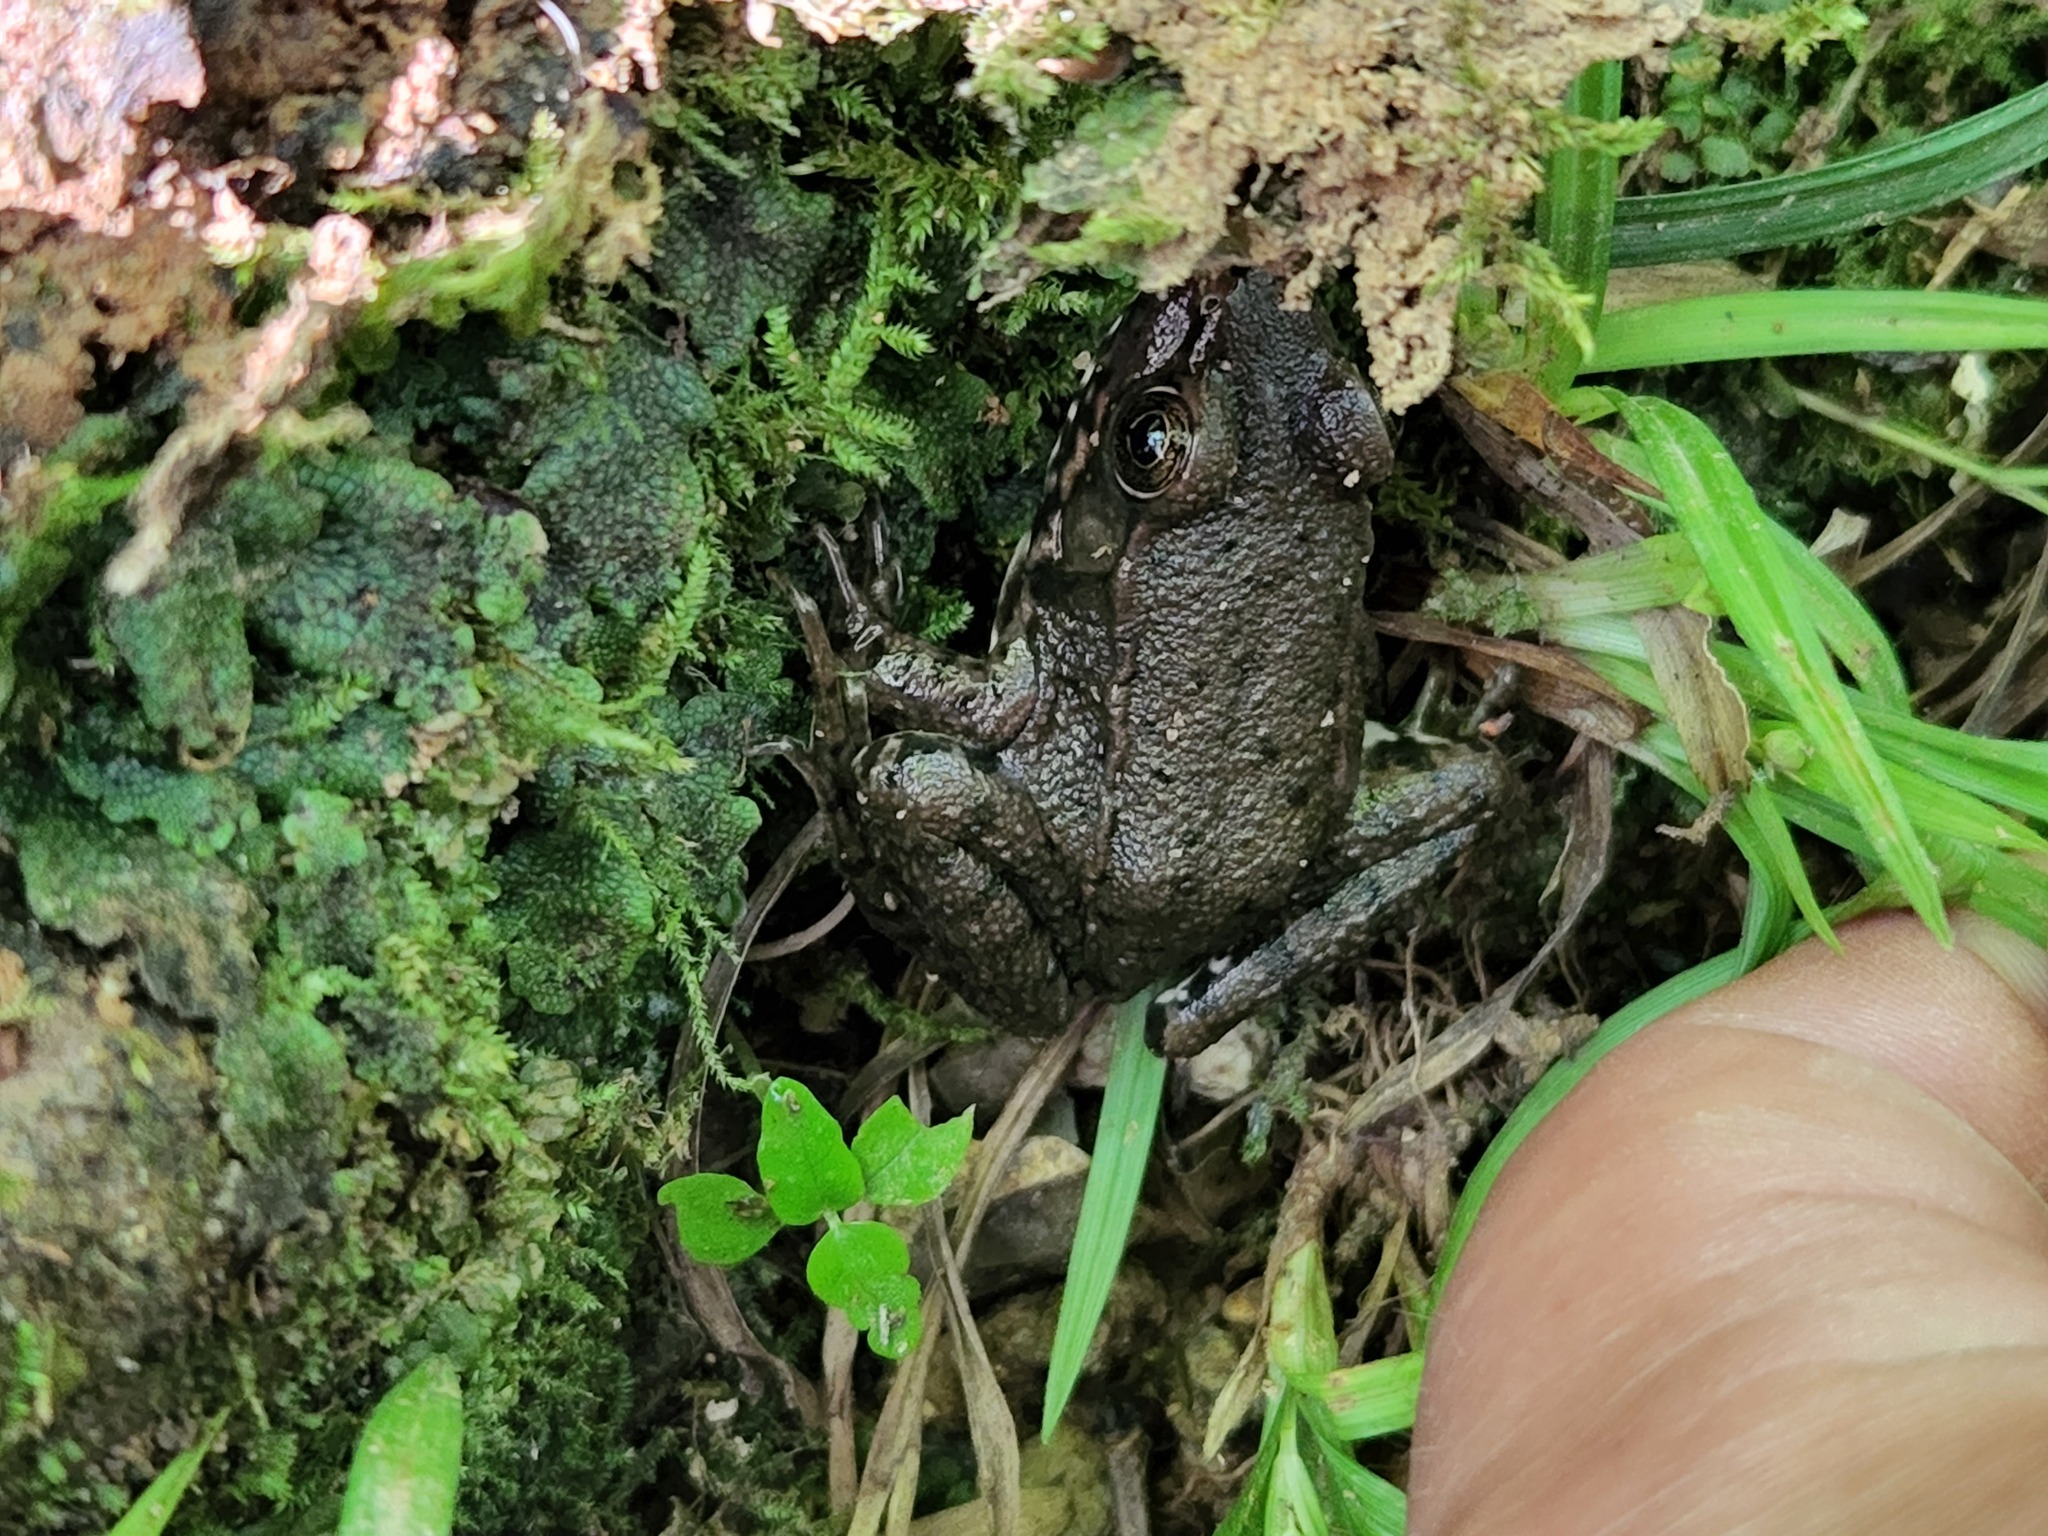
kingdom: Animalia
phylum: Chordata
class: Amphibia
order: Anura
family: Ranidae
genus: Lithobates
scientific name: Lithobates clamitans
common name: Green frog
